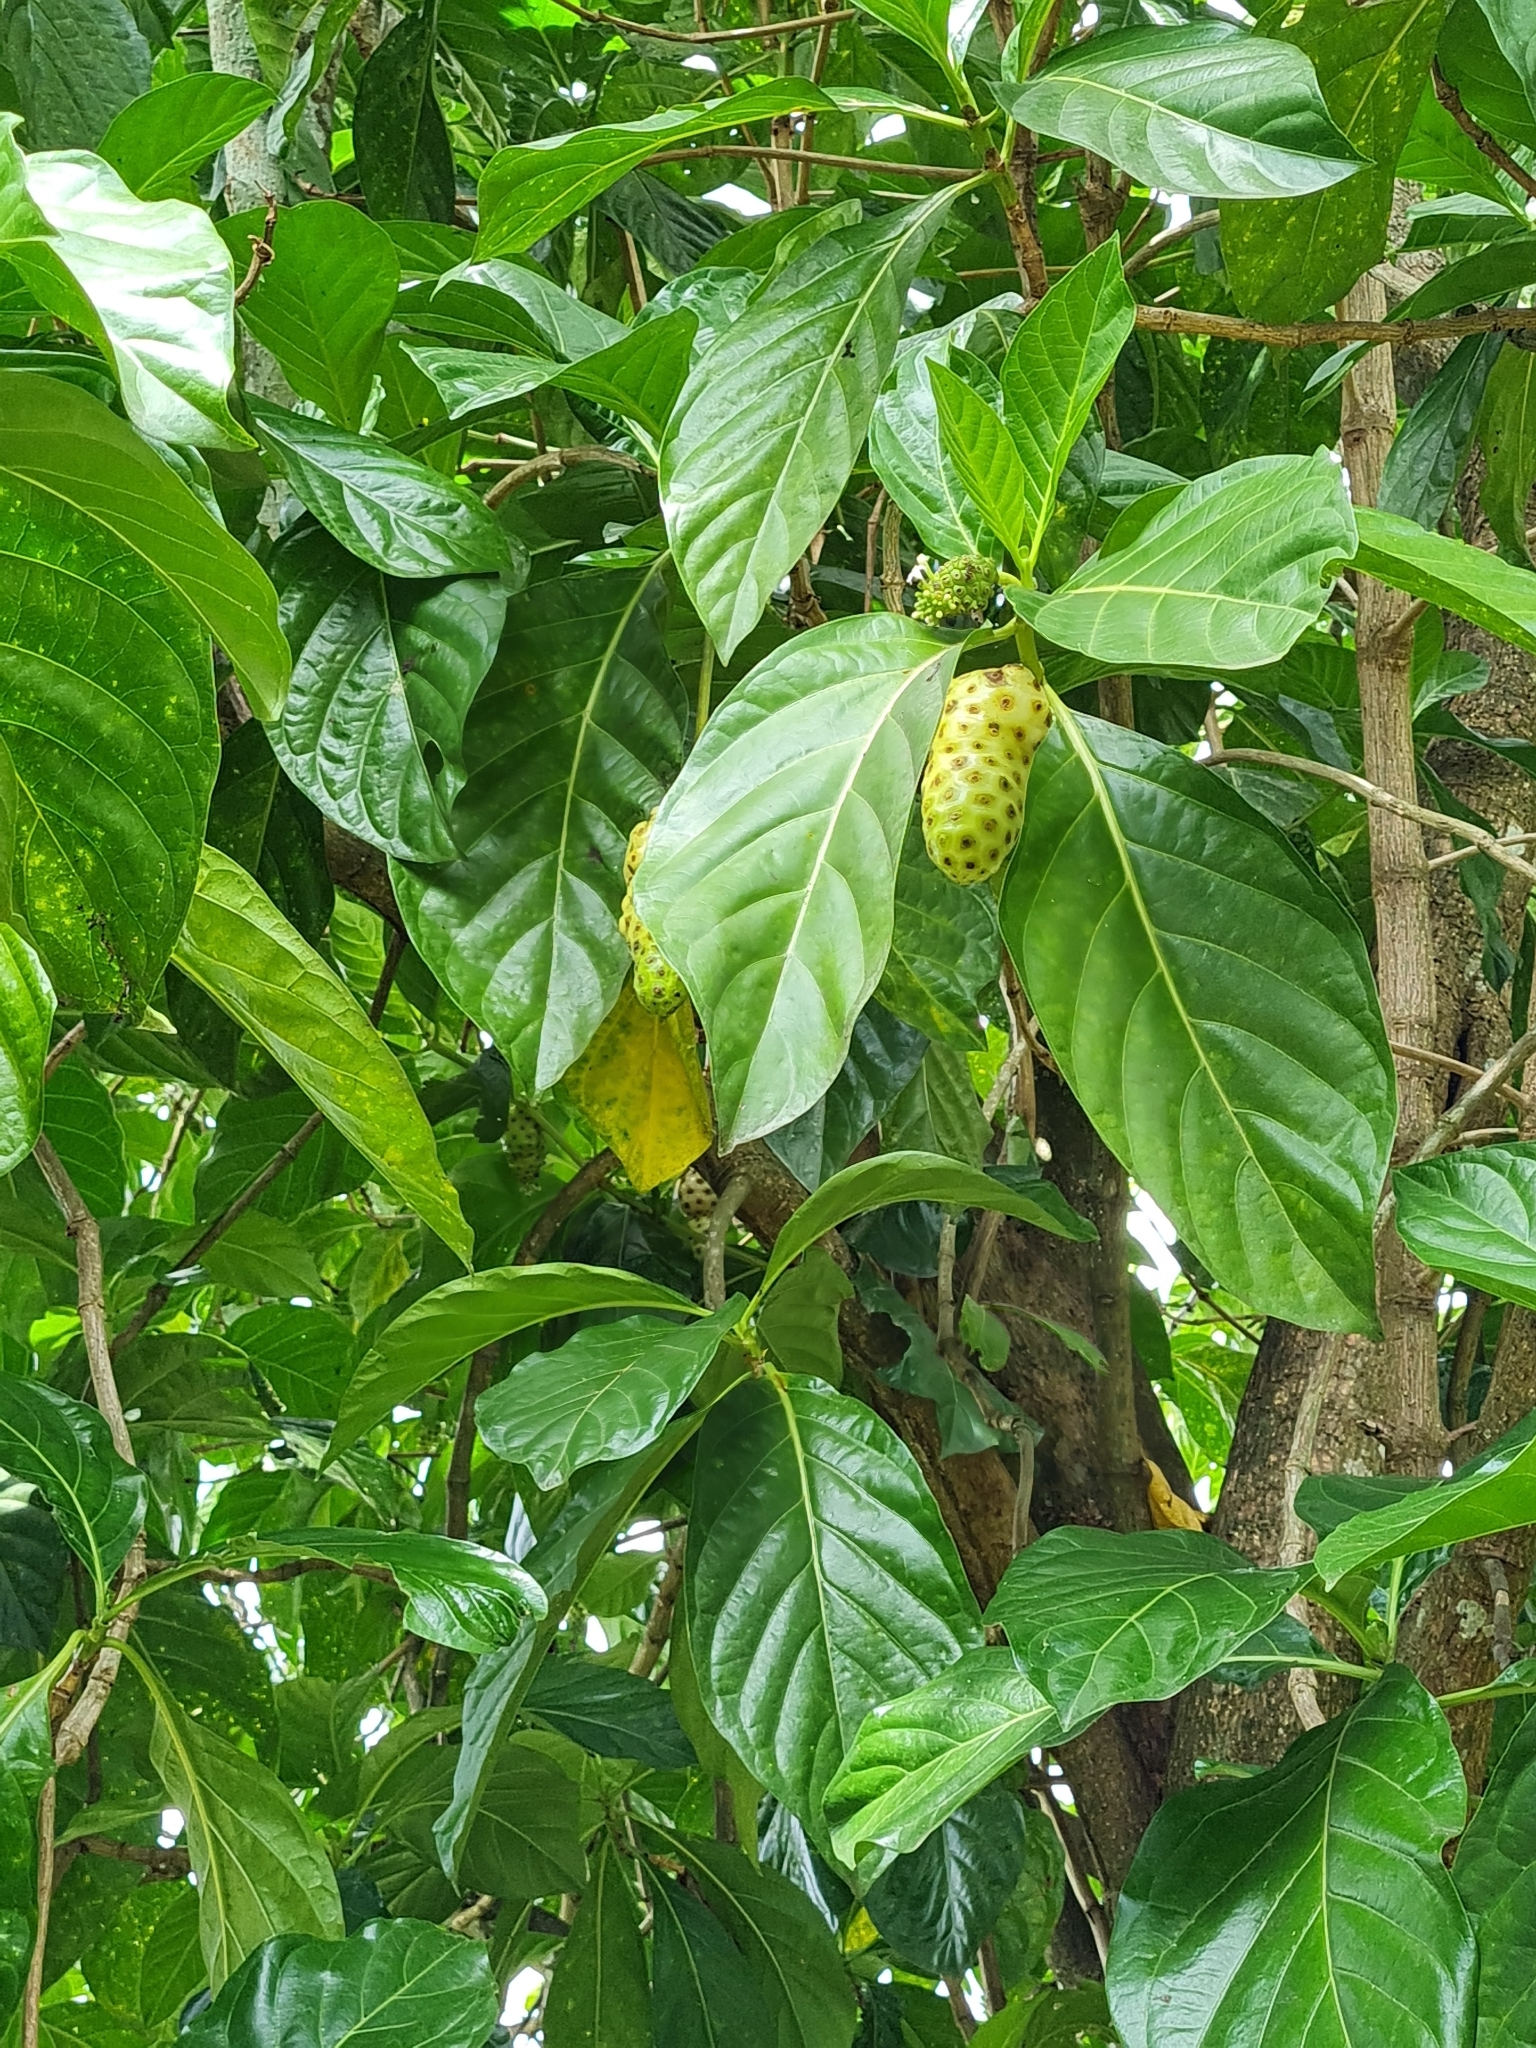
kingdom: Plantae
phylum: Tracheophyta
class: Magnoliopsida
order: Gentianales
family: Rubiaceae
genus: Morinda
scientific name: Morinda citrifolia
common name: Indian-mulberry
